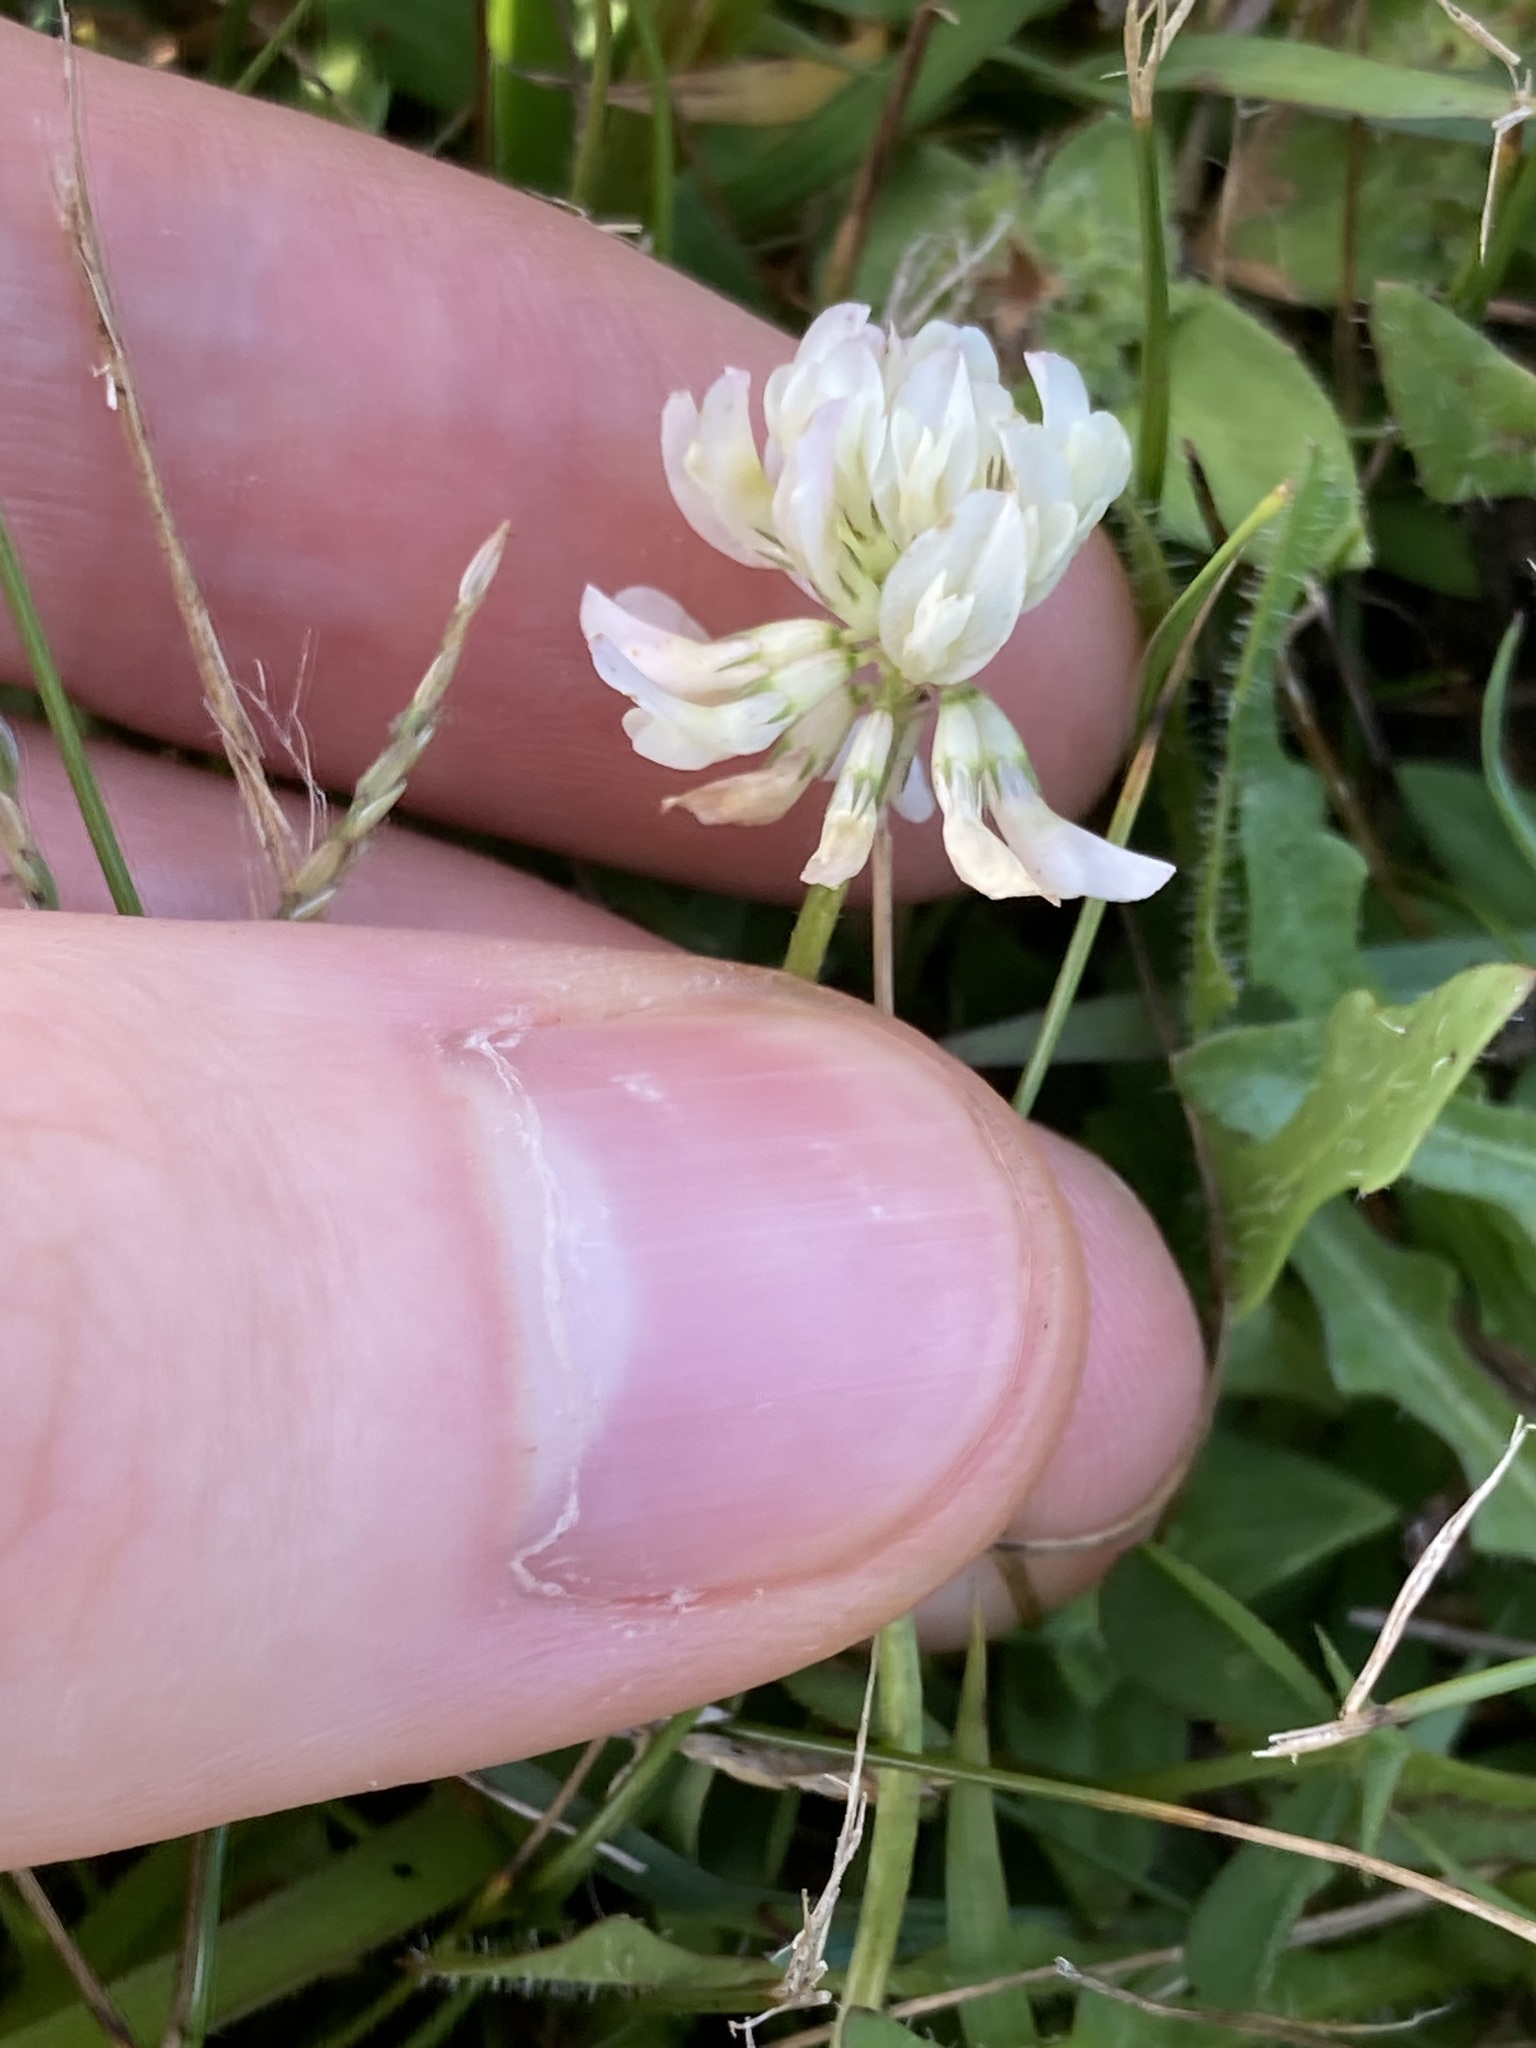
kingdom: Plantae
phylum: Tracheophyta
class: Magnoliopsida
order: Fabales
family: Fabaceae
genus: Trifolium
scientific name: Trifolium repens
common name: White clover
